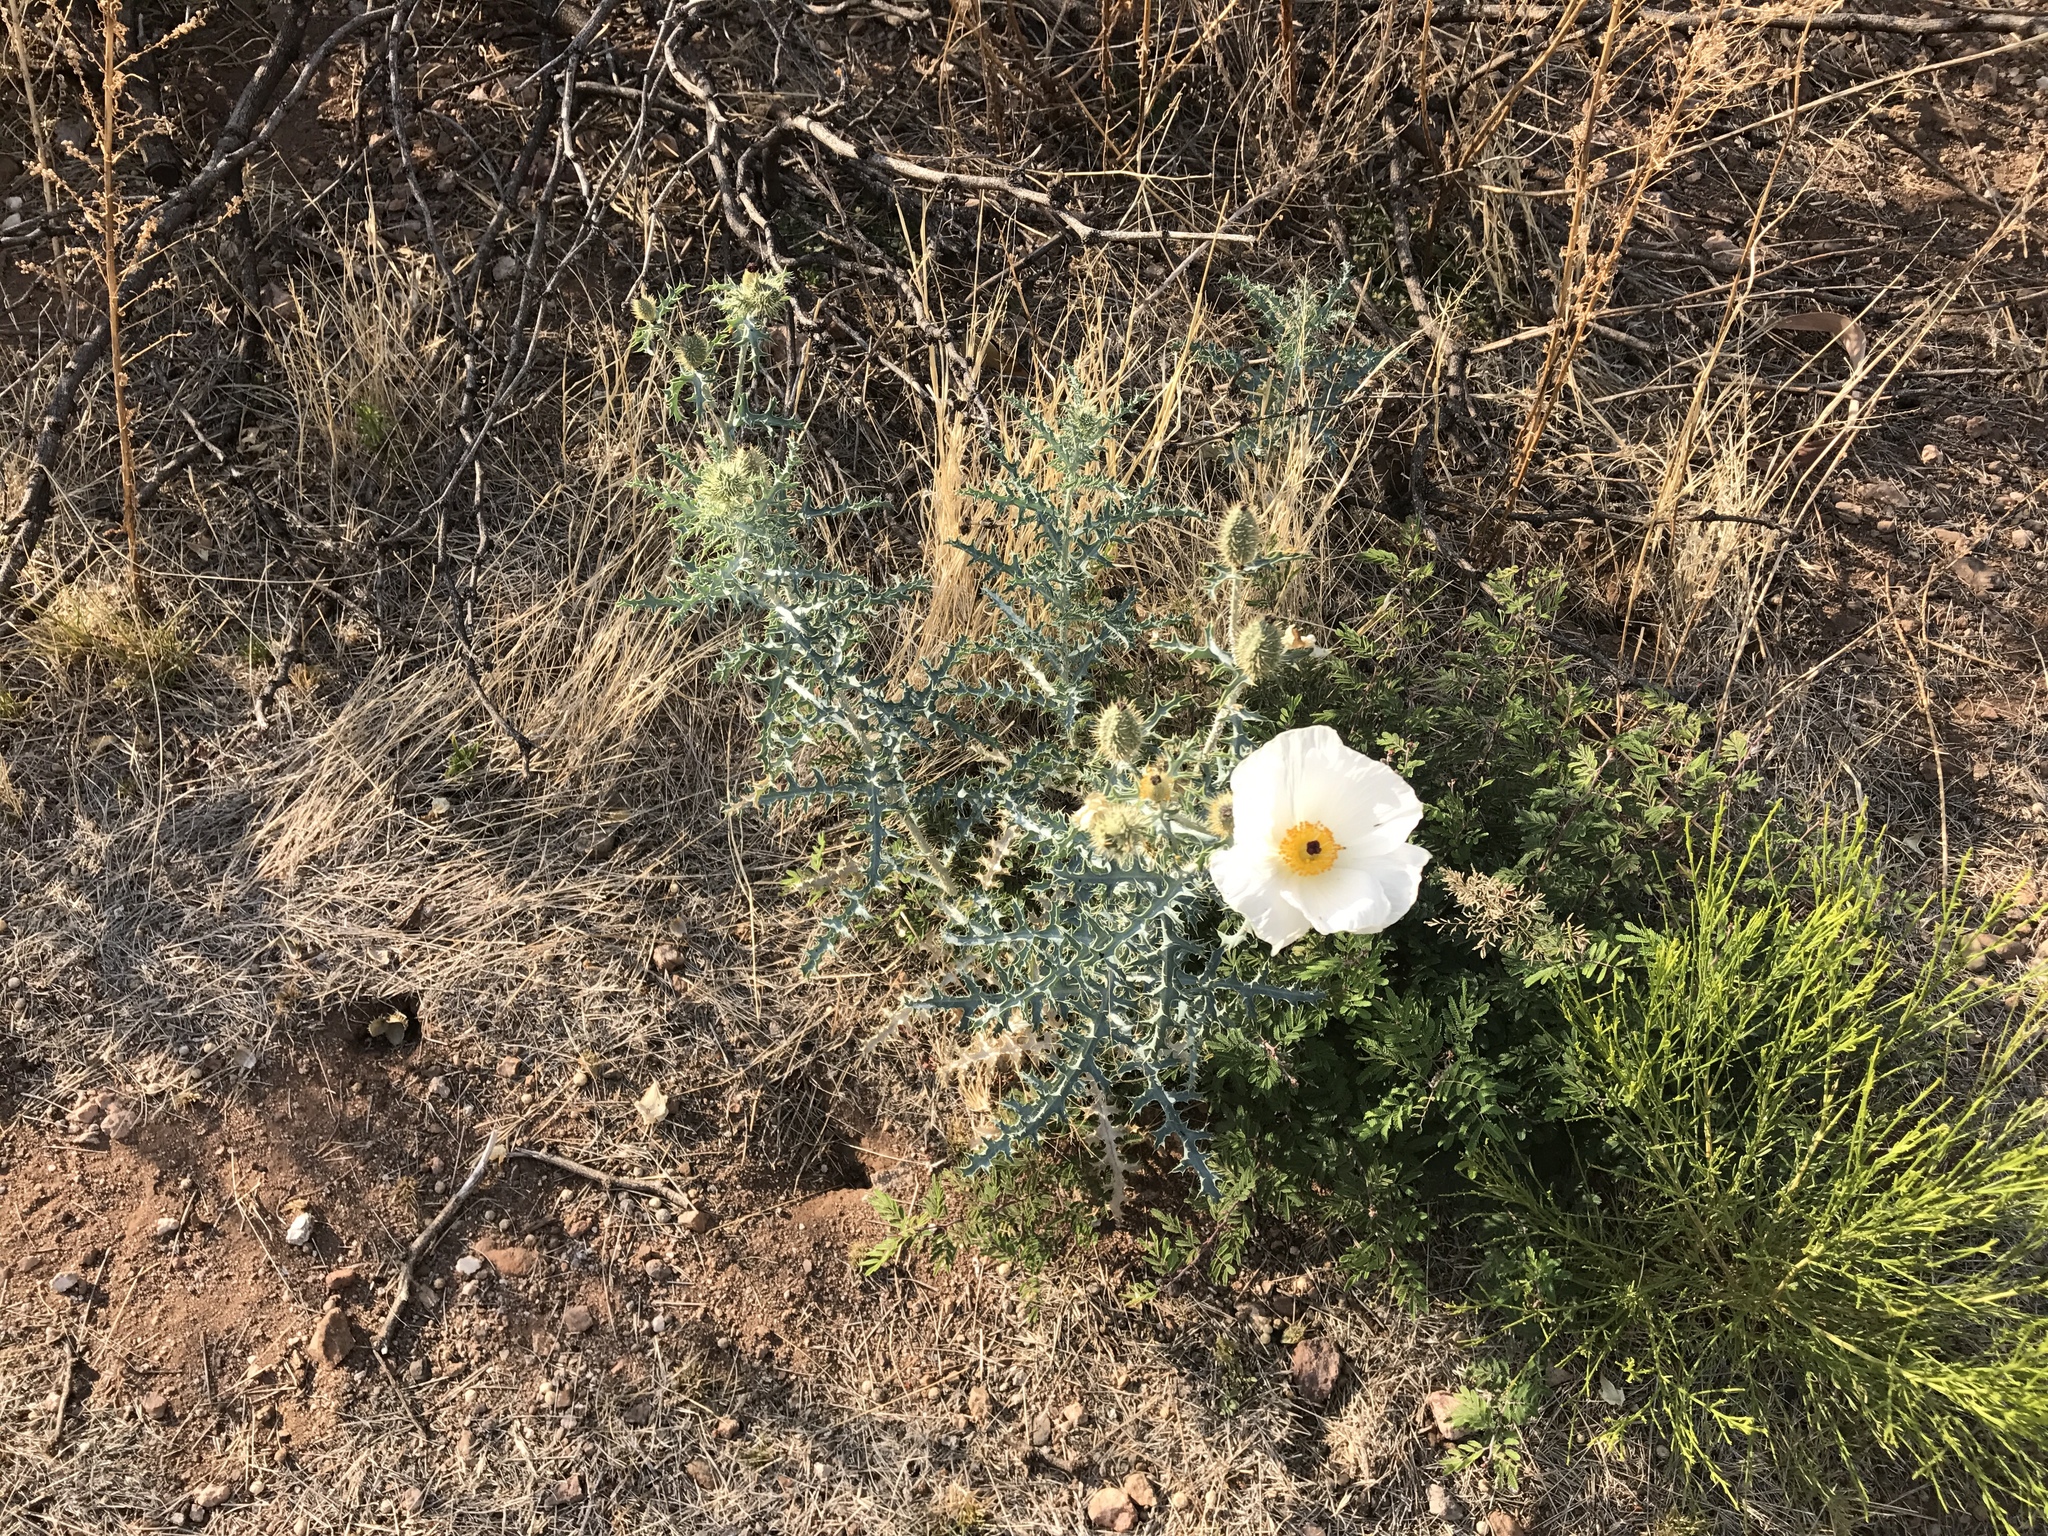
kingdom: Plantae
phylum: Tracheophyta
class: Magnoliopsida
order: Ranunculales
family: Papaveraceae
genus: Argemone
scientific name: Argemone pleiacantha
